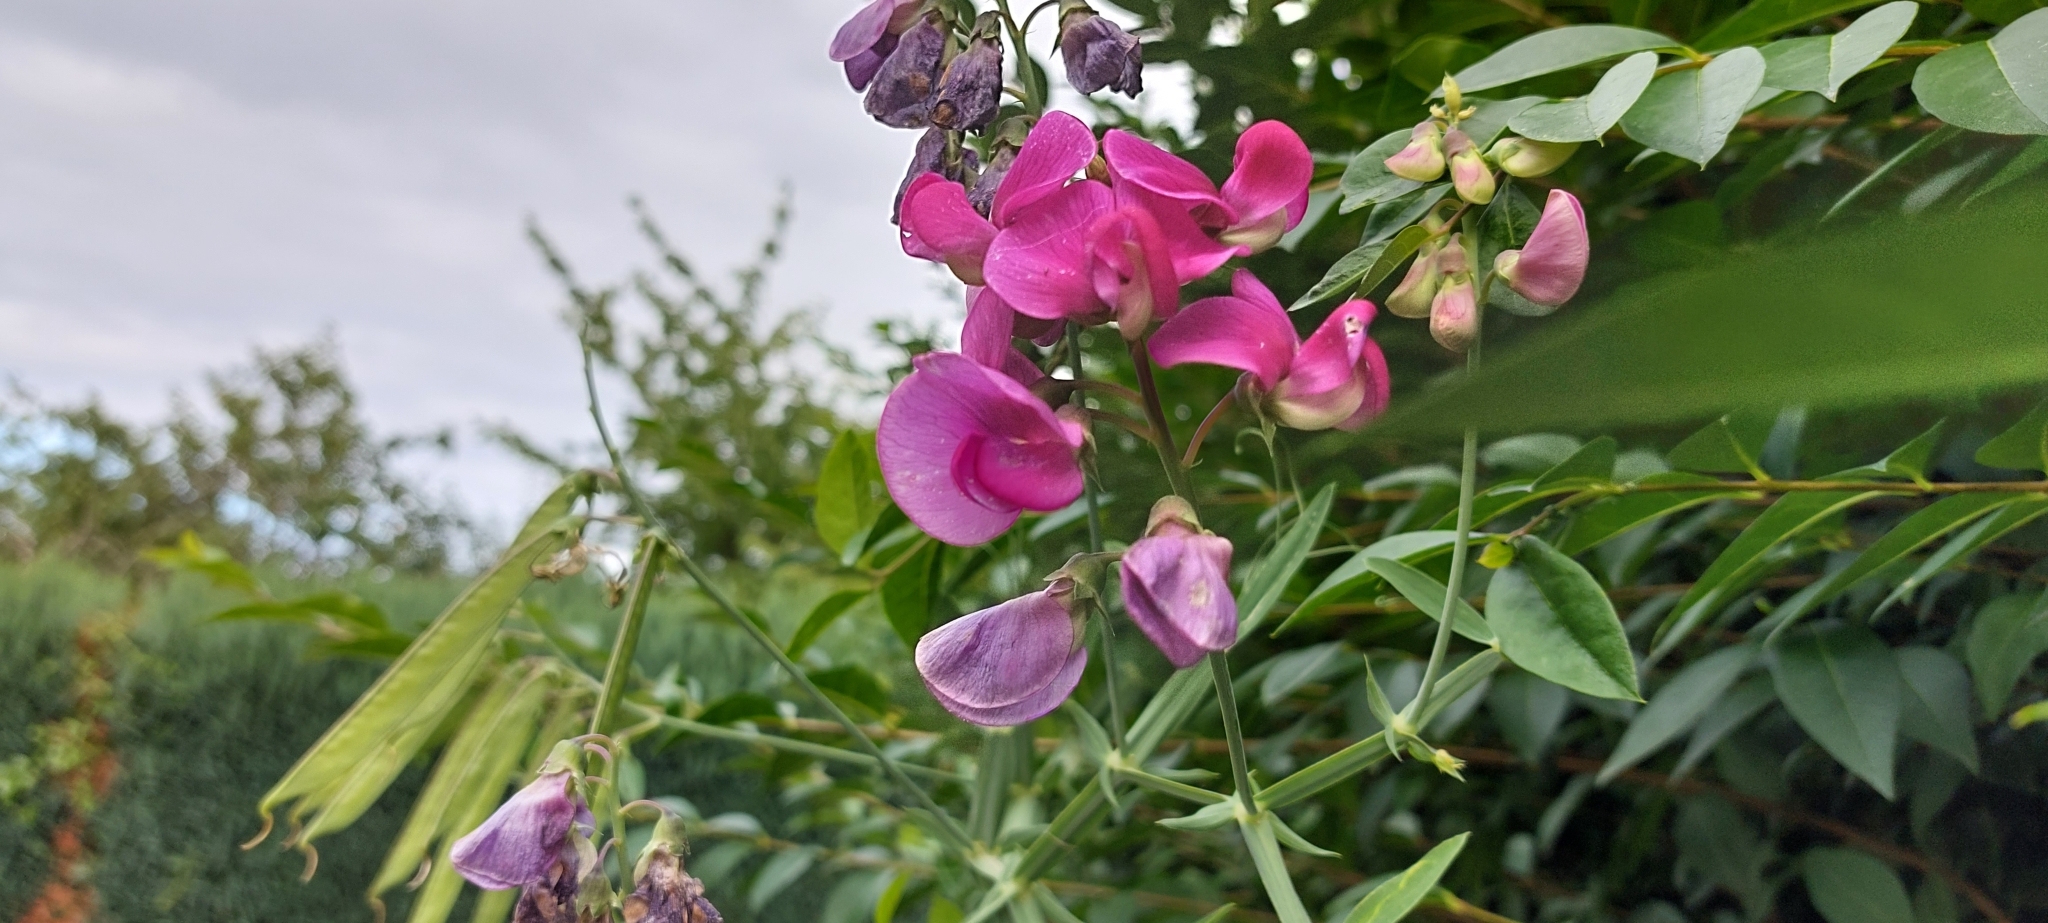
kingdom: Plantae
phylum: Tracheophyta
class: Magnoliopsida
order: Fabales
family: Fabaceae
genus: Lathyrus
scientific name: Lathyrus latifolius
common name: Perennial pea
